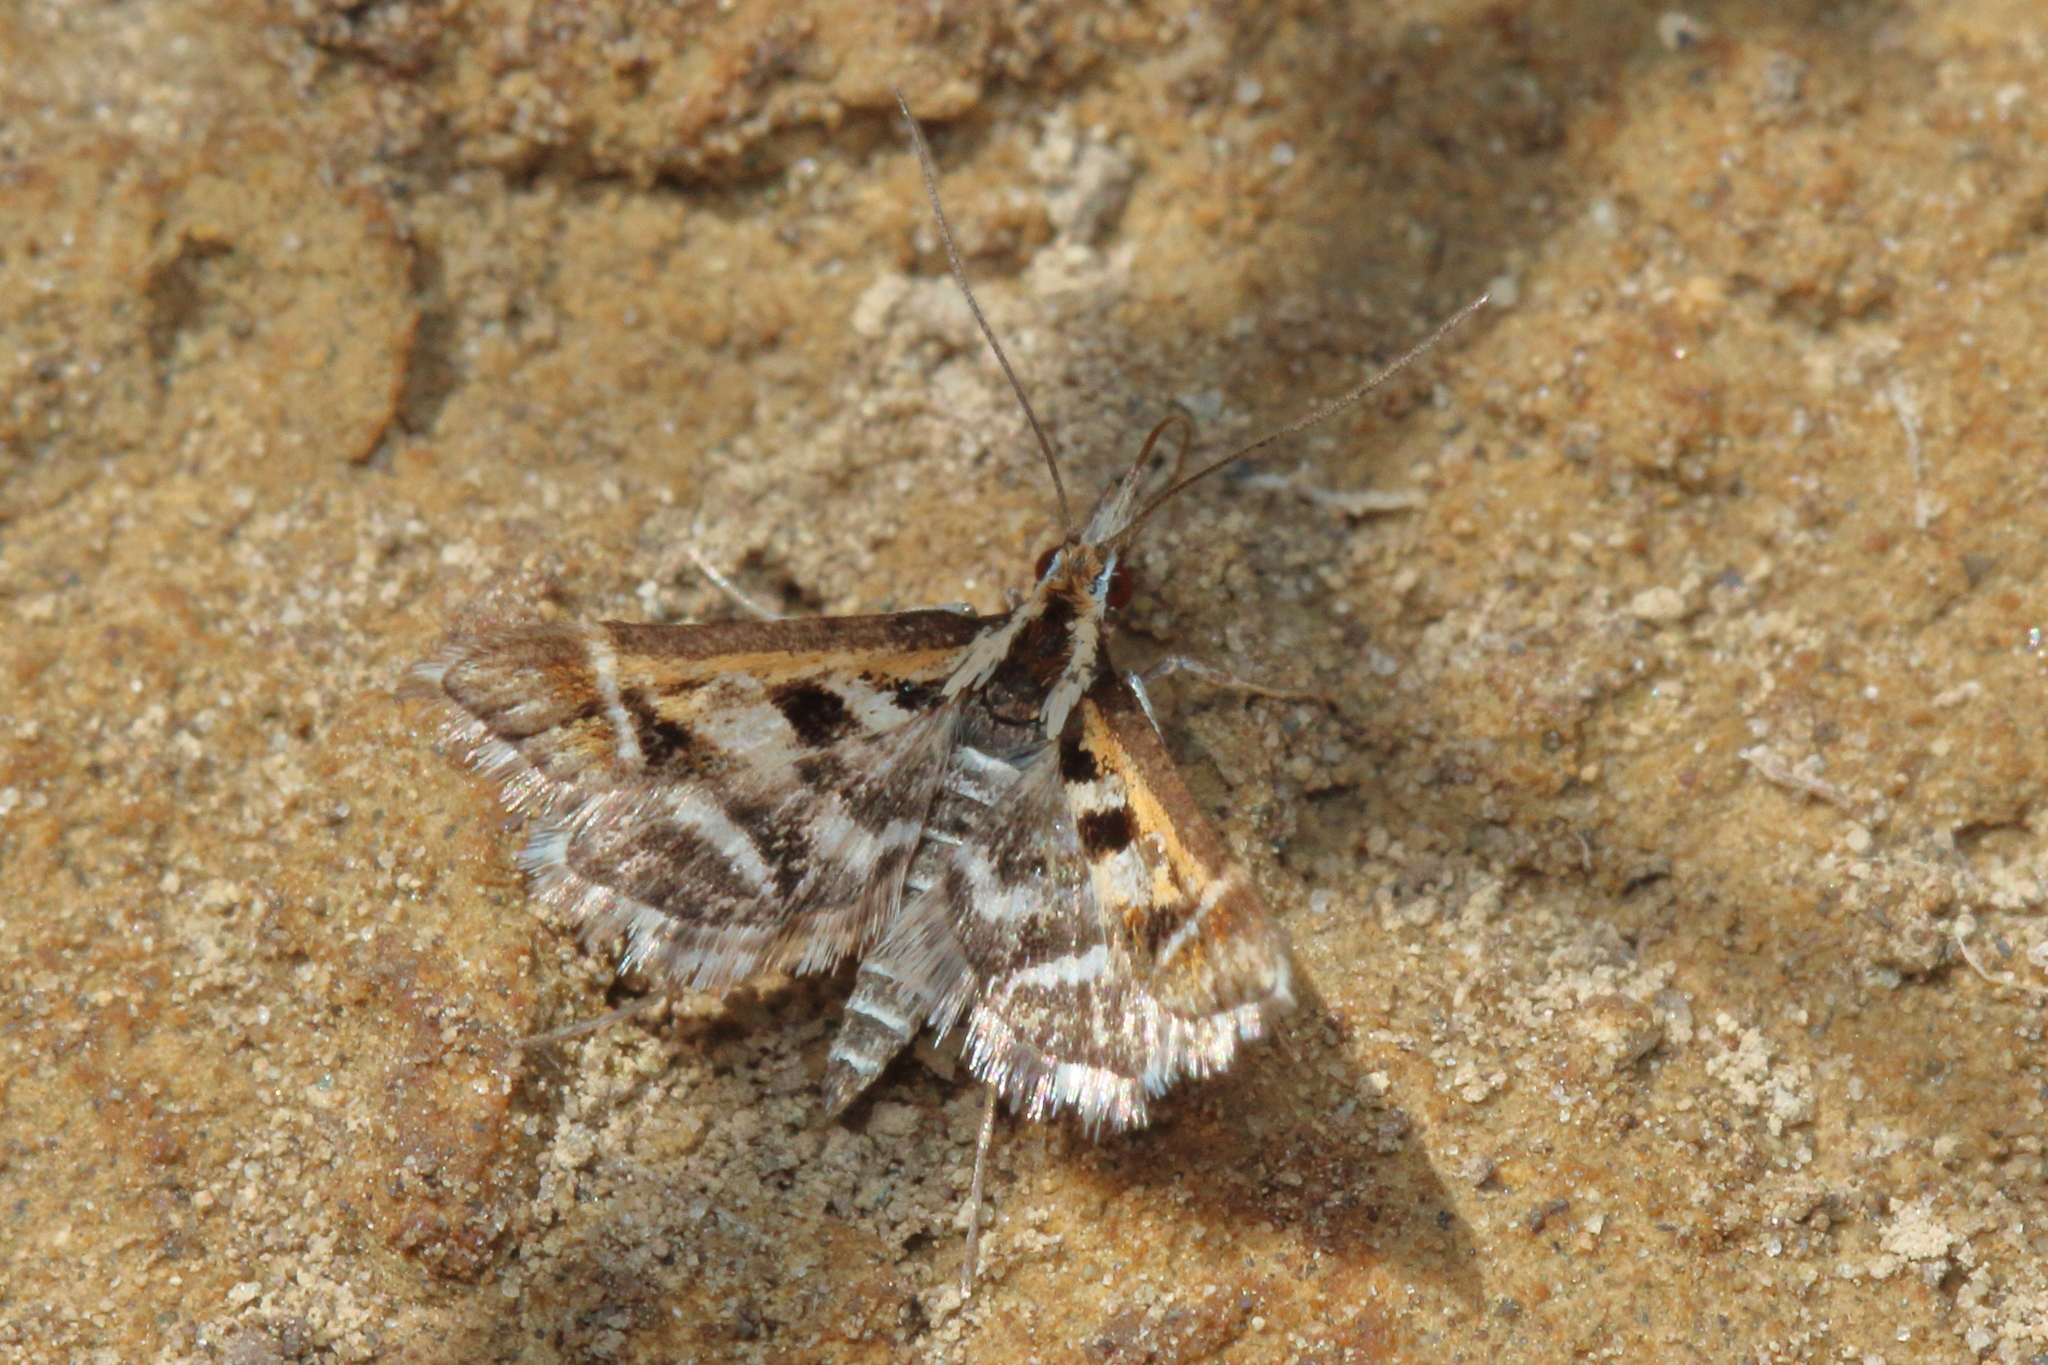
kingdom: Animalia
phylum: Arthropoda
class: Insecta
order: Lepidoptera
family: Crambidae
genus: Diasemia
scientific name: Diasemia grammalis
